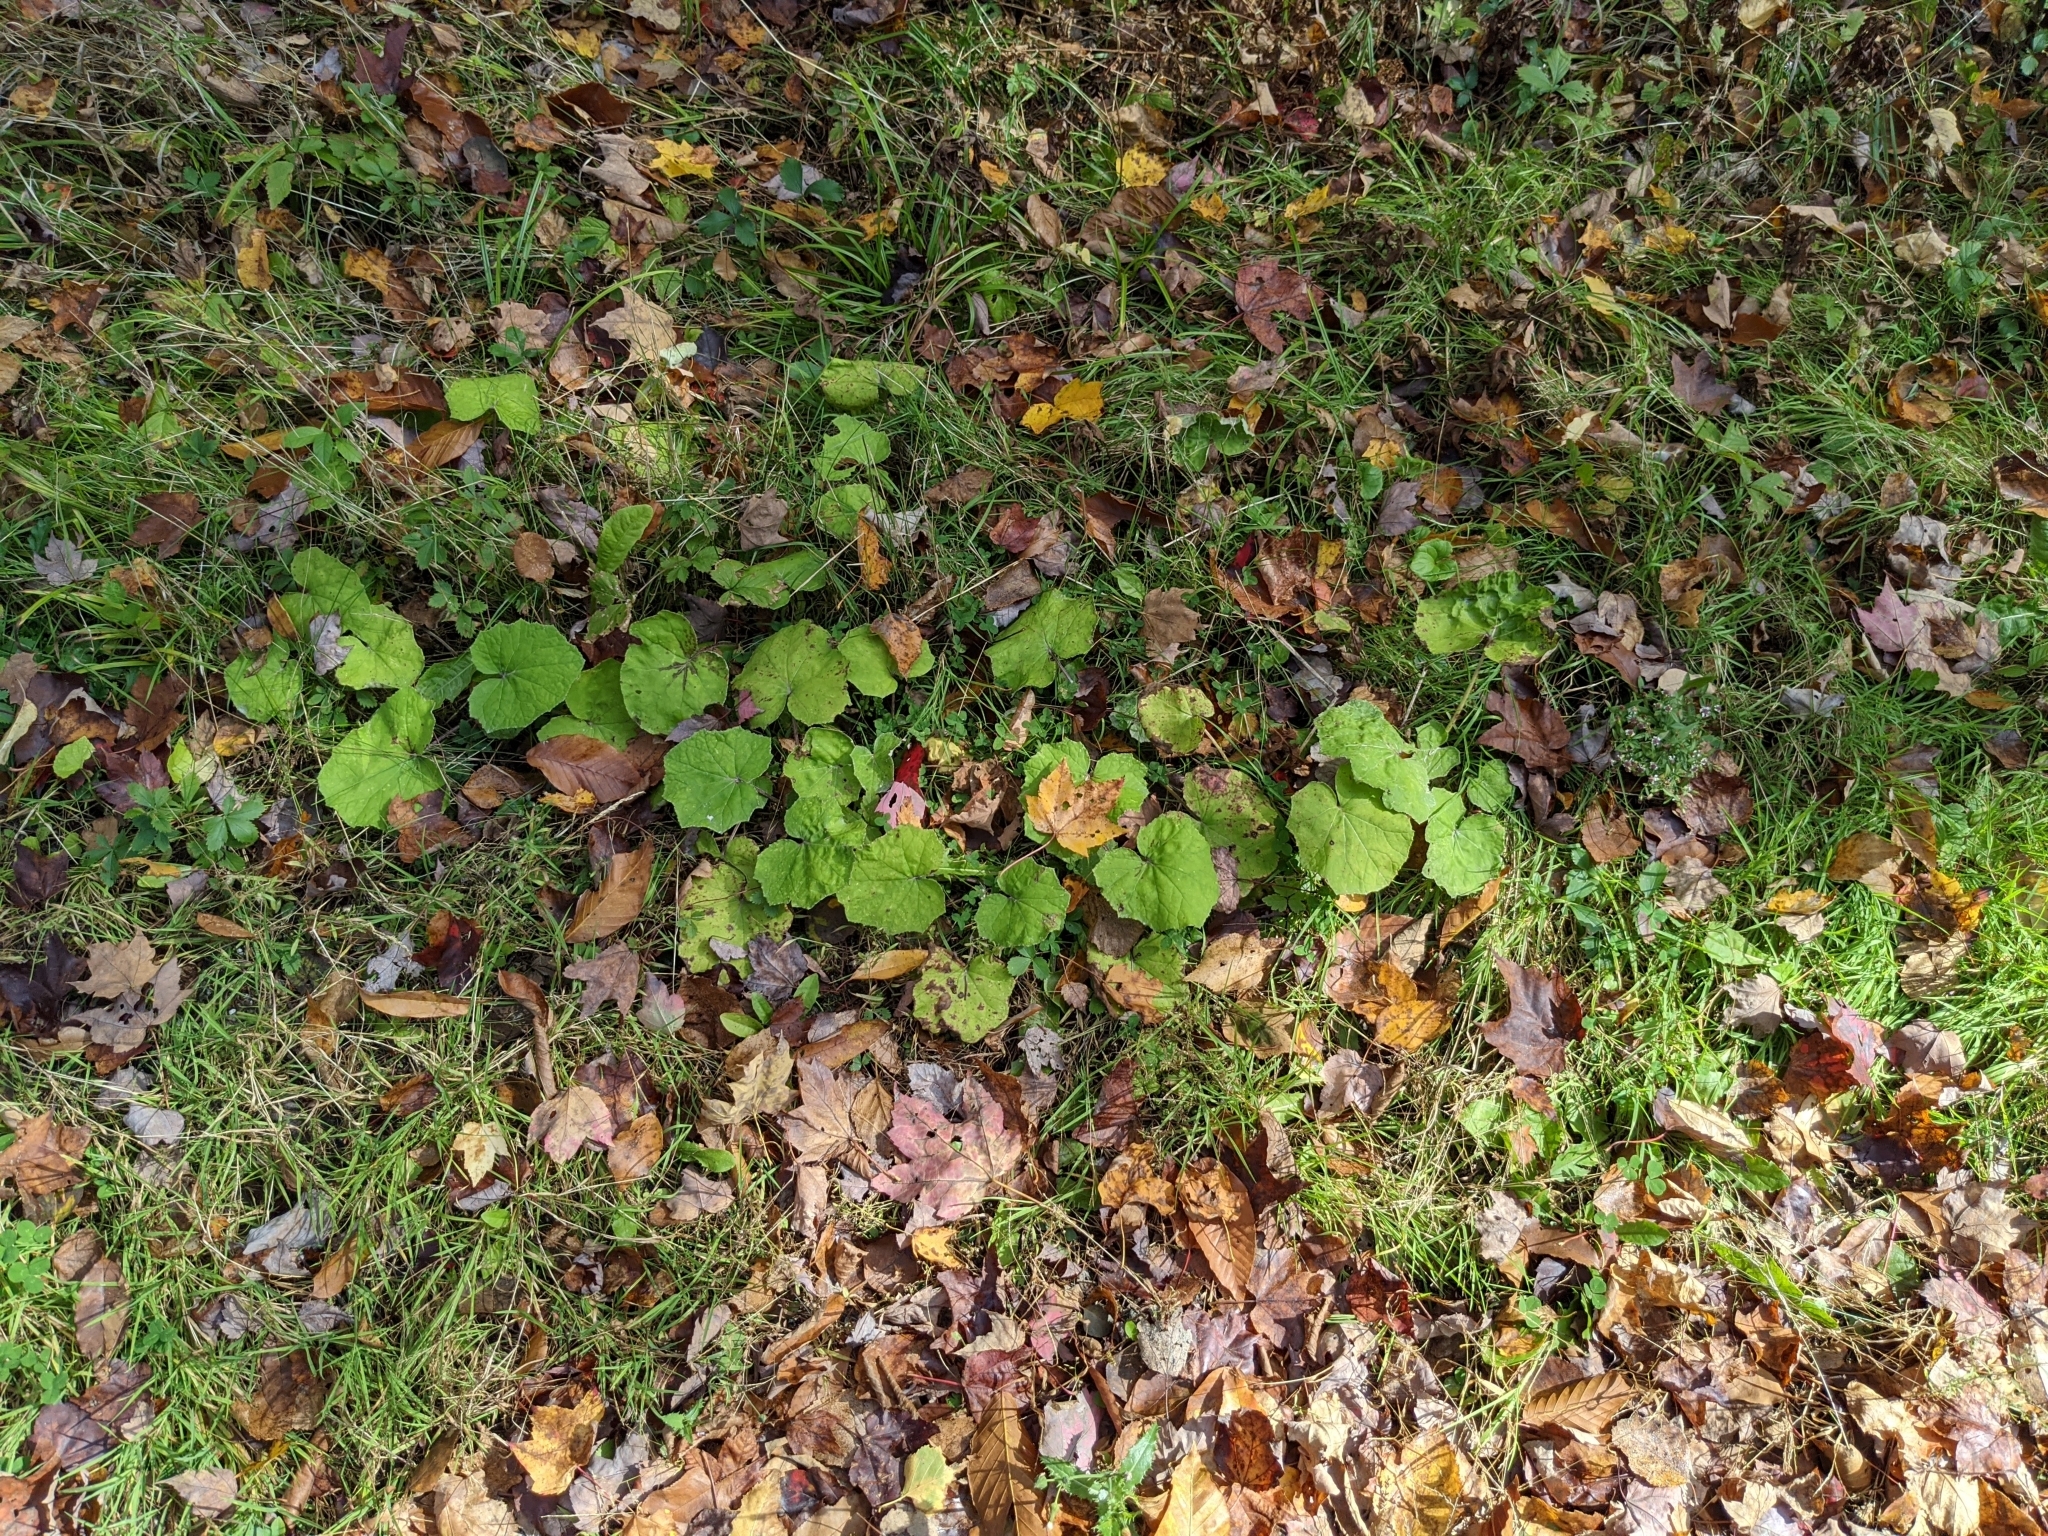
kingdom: Plantae
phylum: Tracheophyta
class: Magnoliopsida
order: Asterales
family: Asteraceae
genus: Tussilago
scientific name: Tussilago farfara
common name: Coltsfoot
